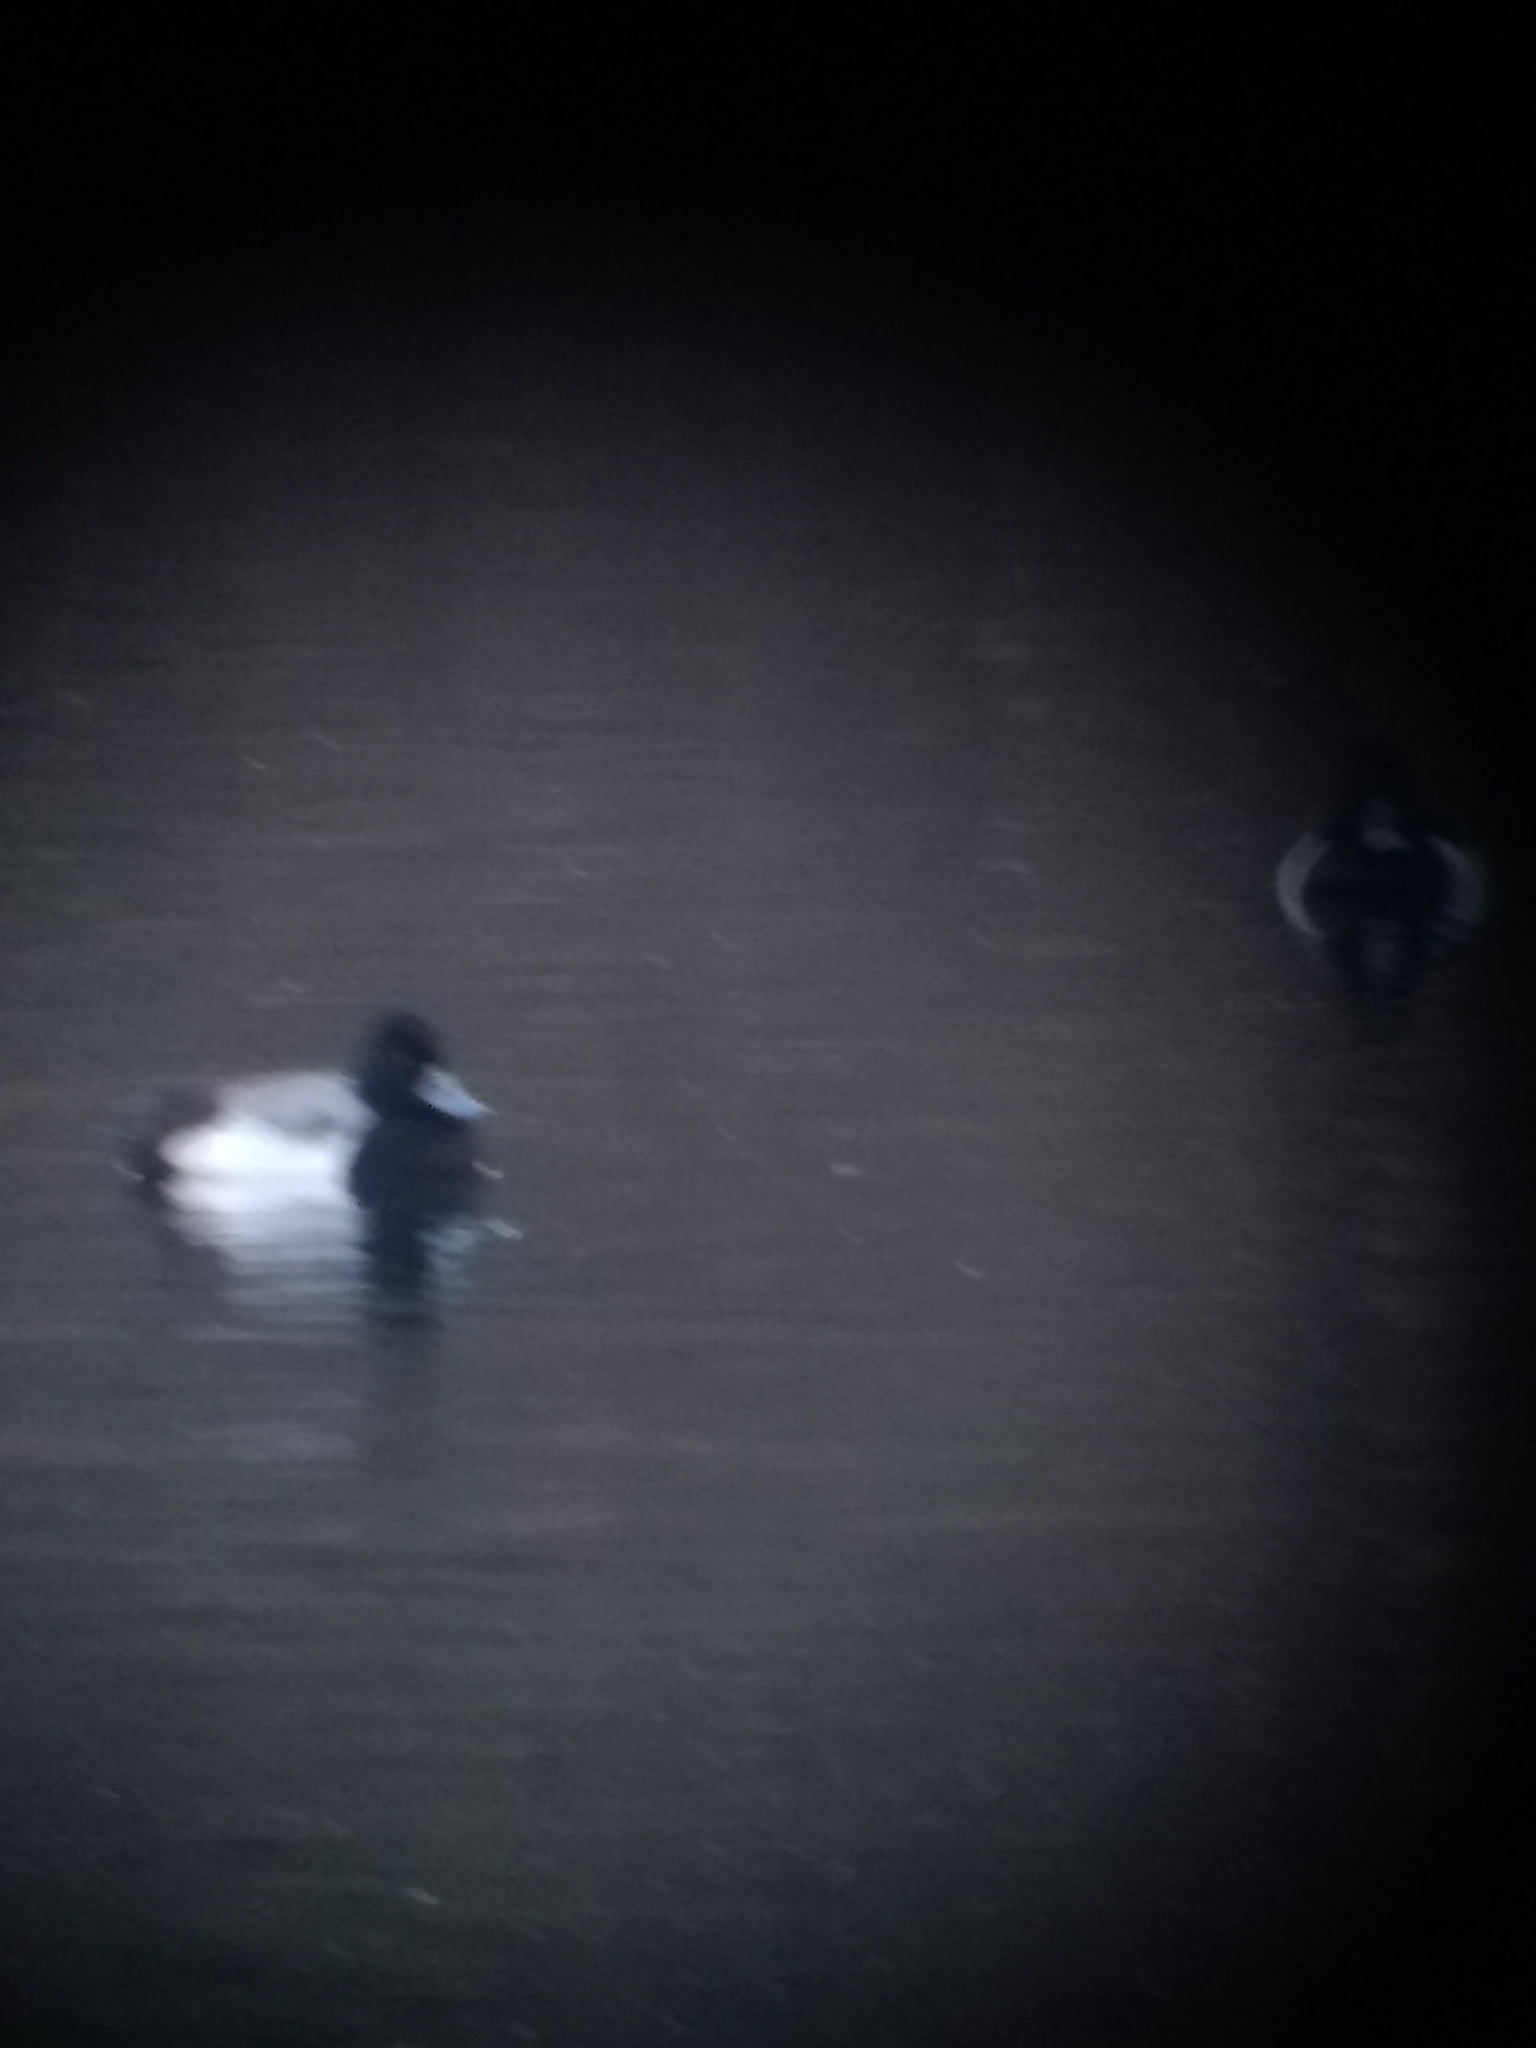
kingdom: Animalia
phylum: Chordata
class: Aves
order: Anseriformes
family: Anatidae
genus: Aythya
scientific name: Aythya affinis
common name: Lesser scaup
